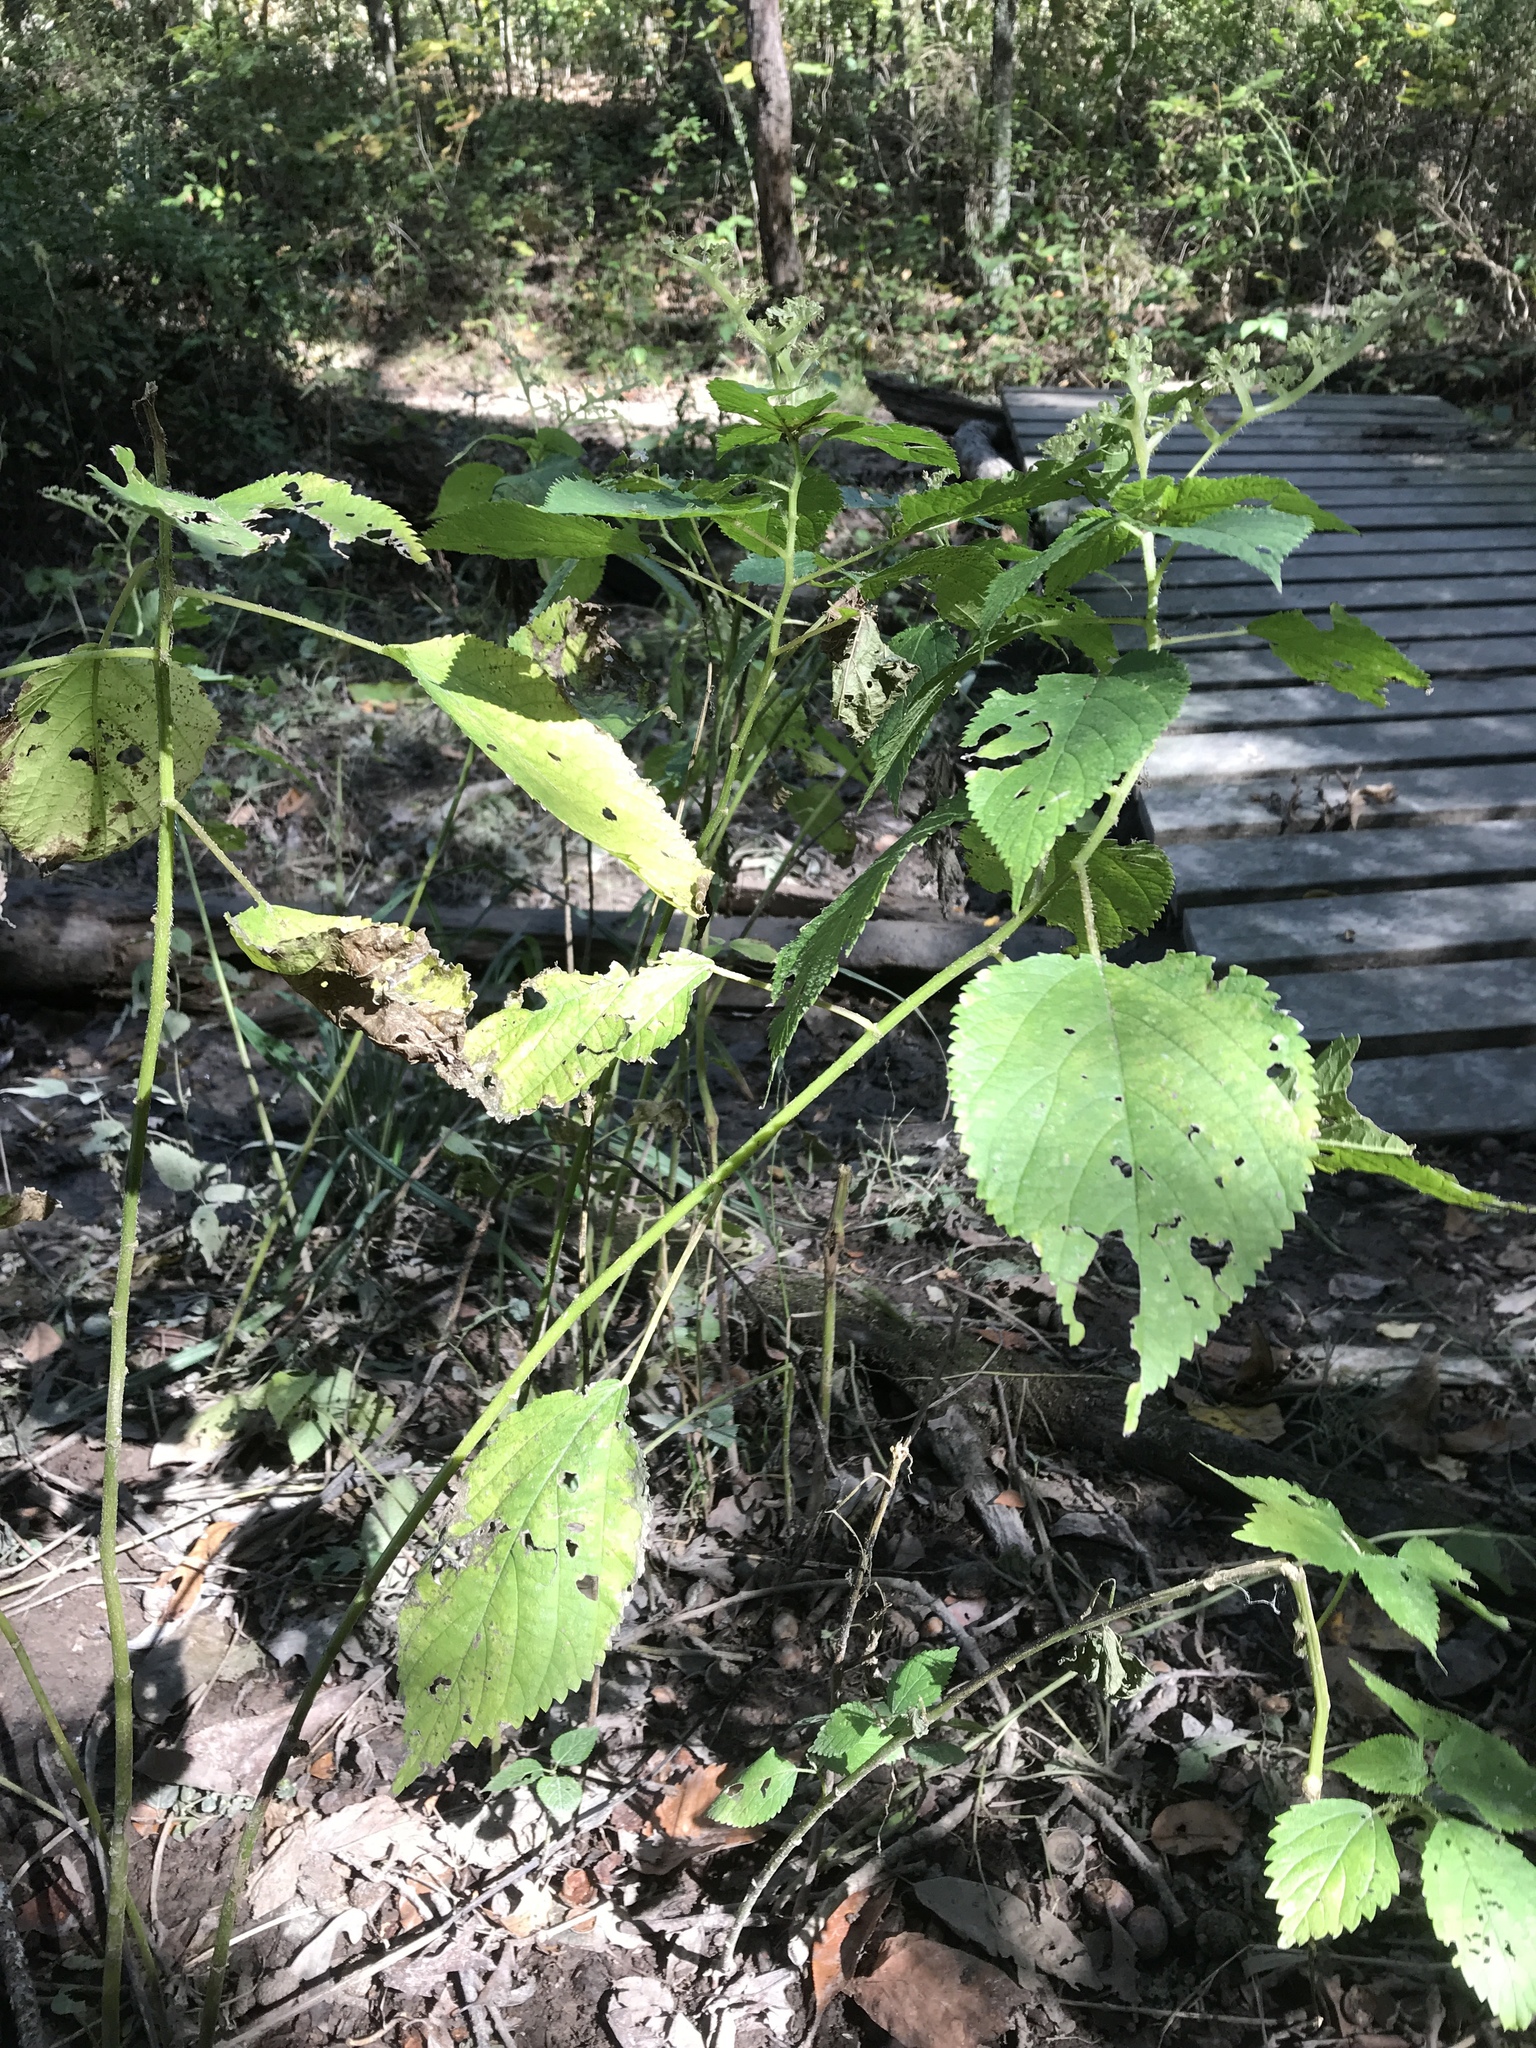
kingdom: Plantae
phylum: Tracheophyta
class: Magnoliopsida
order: Rosales
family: Urticaceae
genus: Laportea
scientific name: Laportea canadensis
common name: Canada nettle
